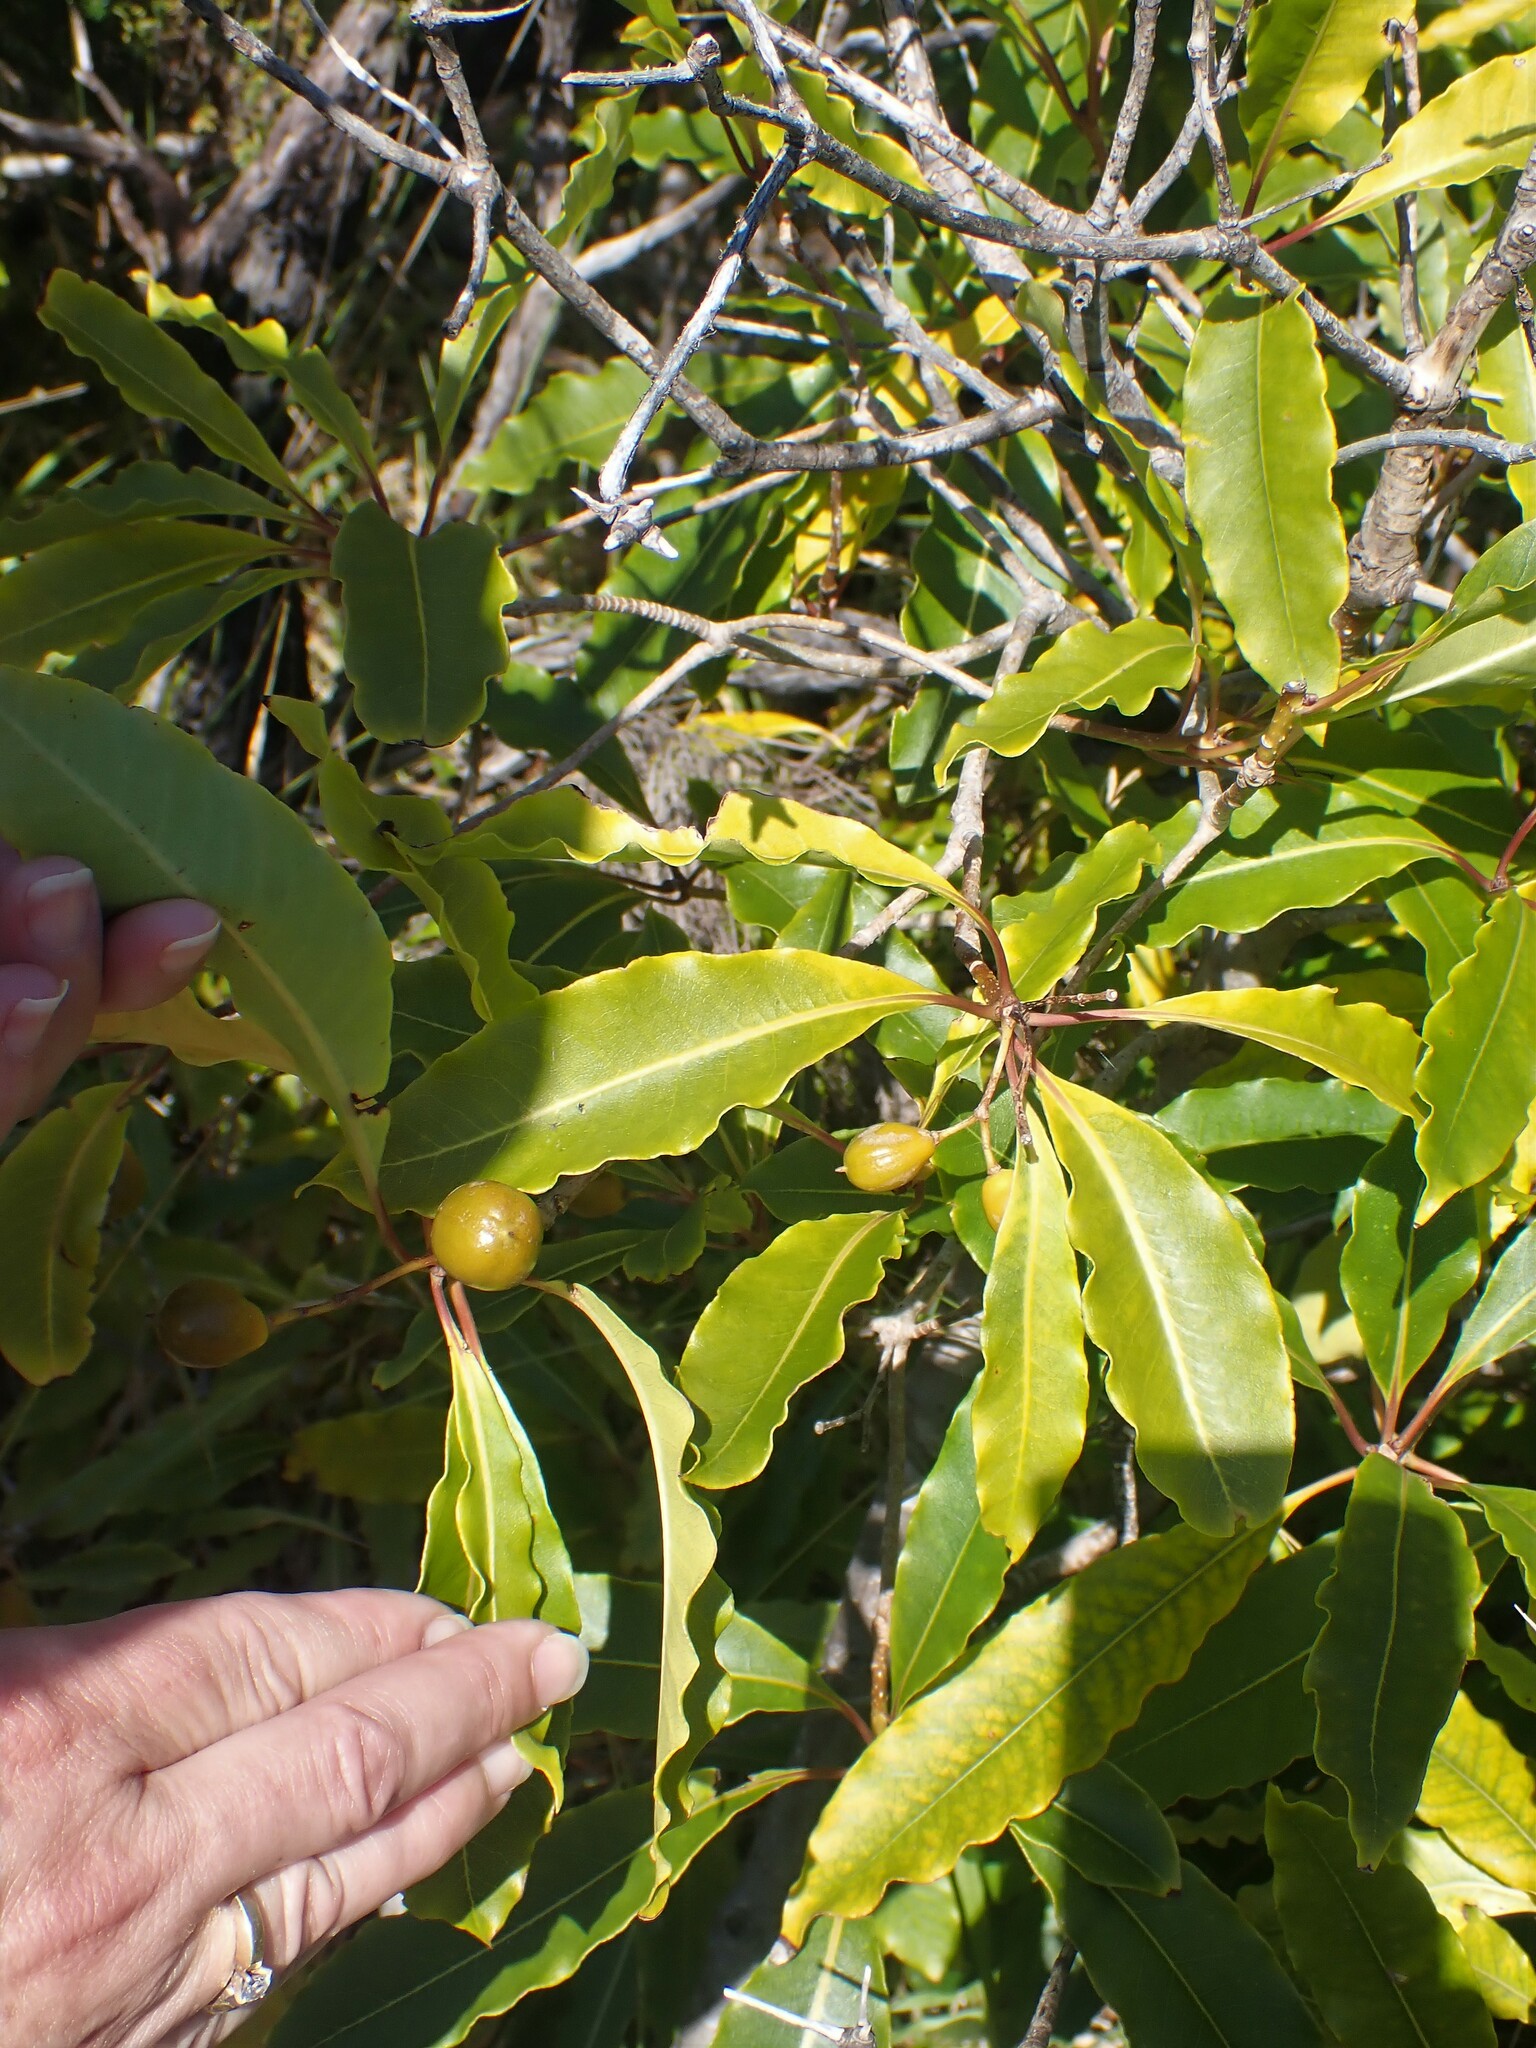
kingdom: Plantae
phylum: Tracheophyta
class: Magnoliopsida
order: Apiales
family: Pittosporaceae
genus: Pittosporum
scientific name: Pittosporum undulatum
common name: Australian cheesewood
